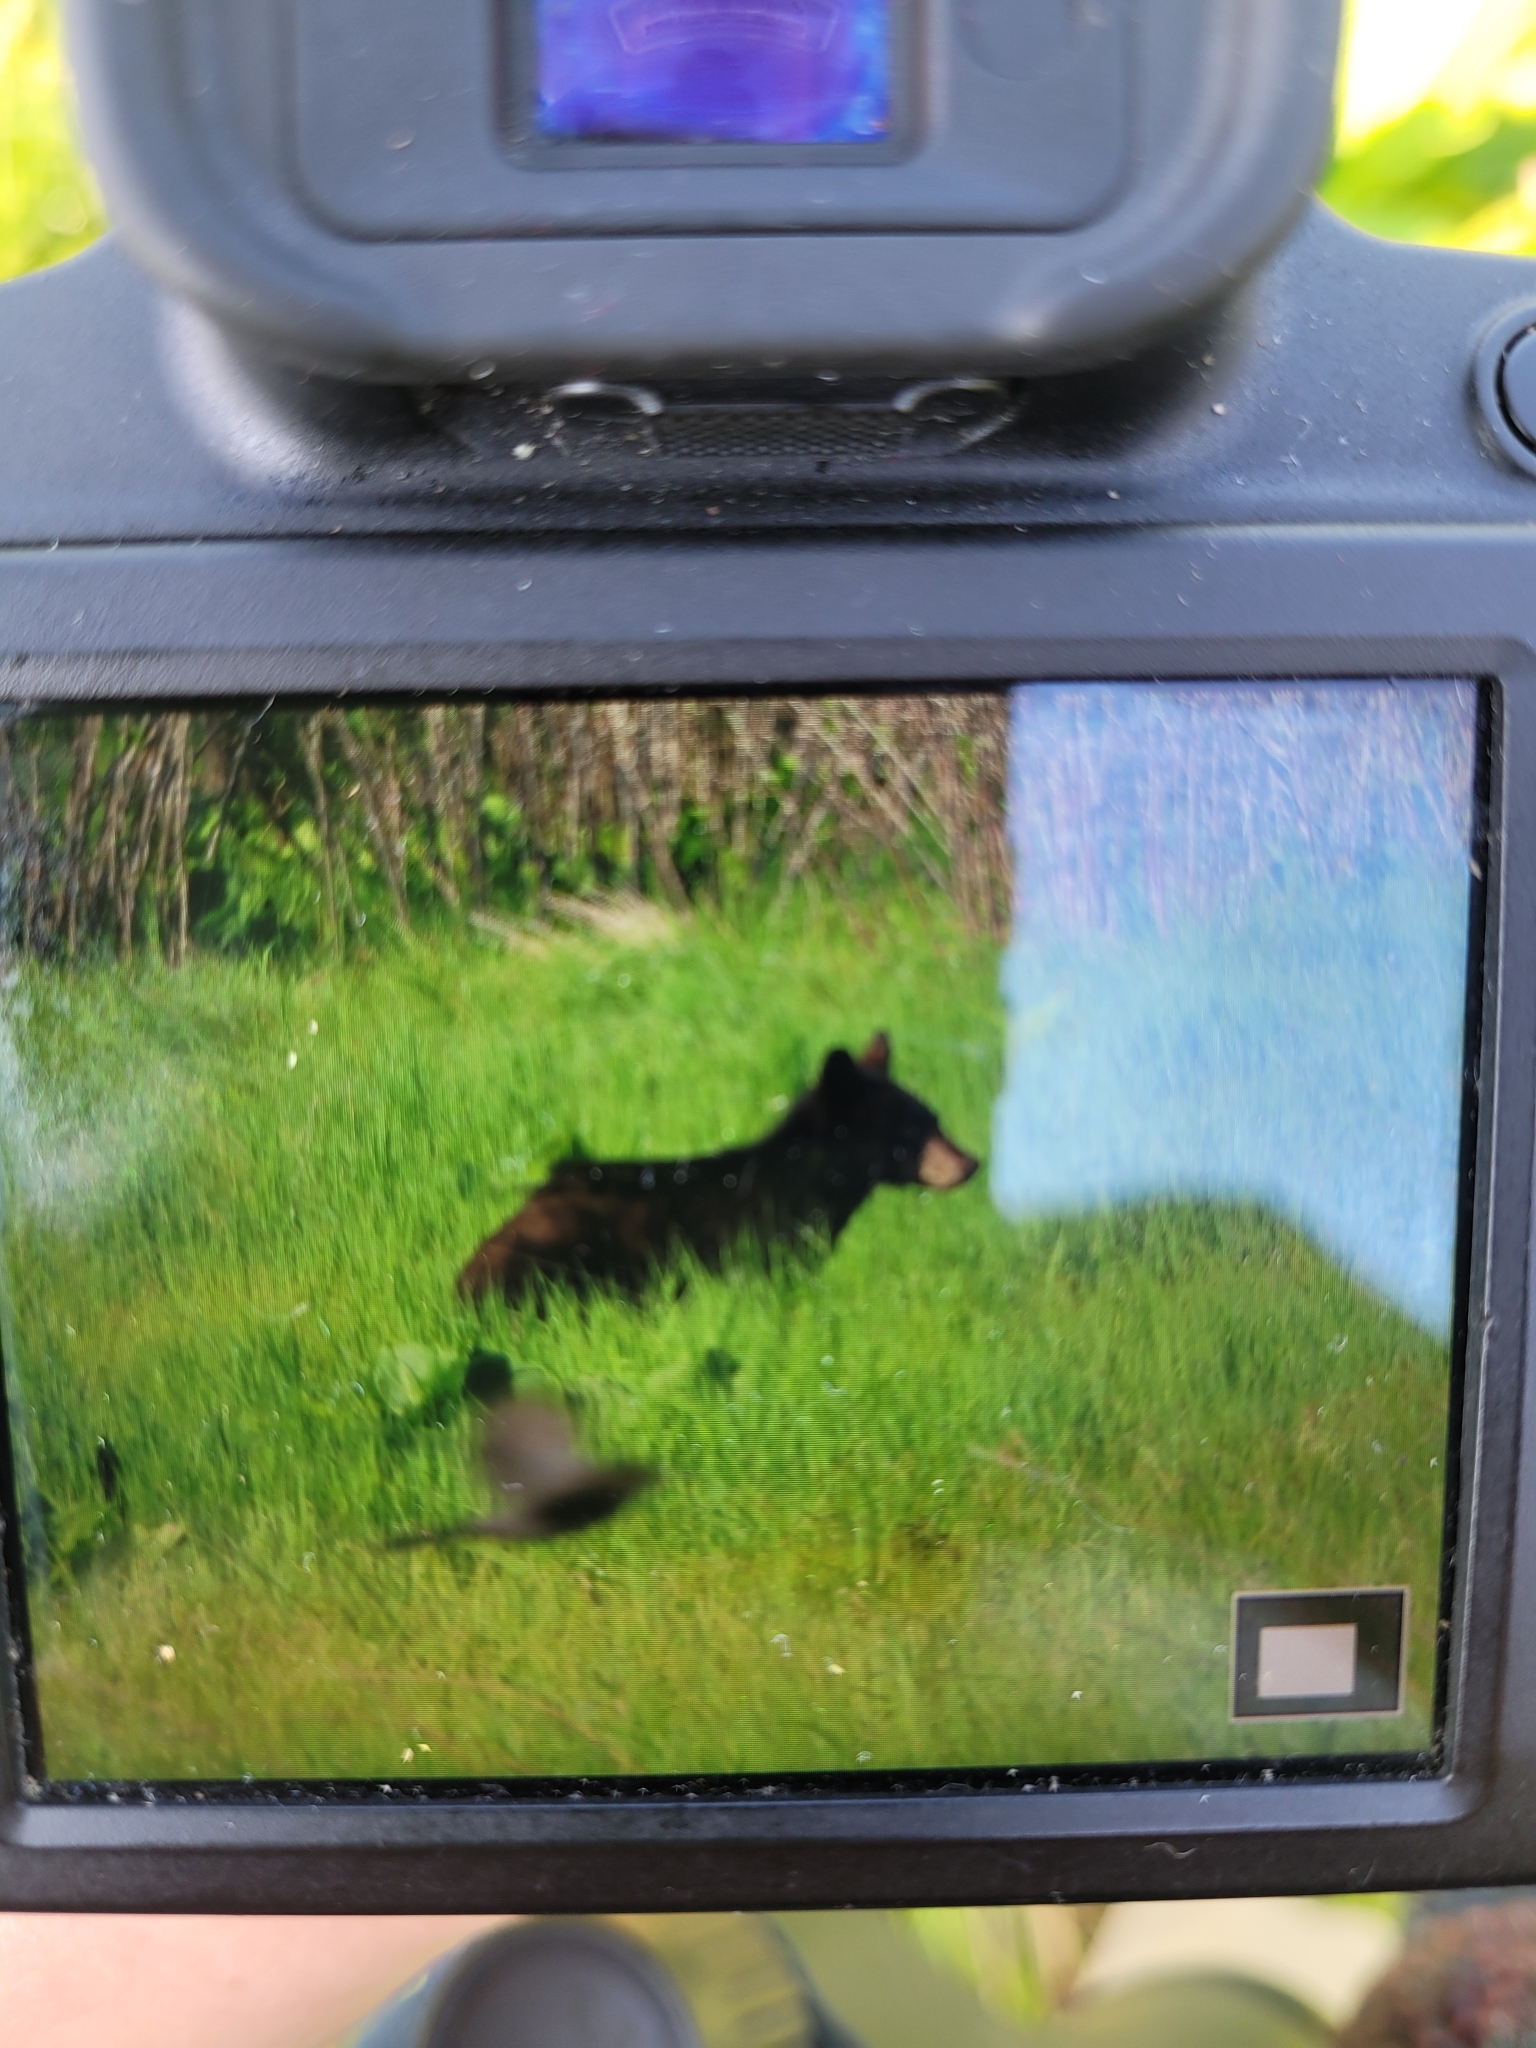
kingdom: Animalia
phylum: Chordata
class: Mammalia
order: Carnivora
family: Ursidae
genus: Ursus
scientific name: Ursus americanus
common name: American black bear
